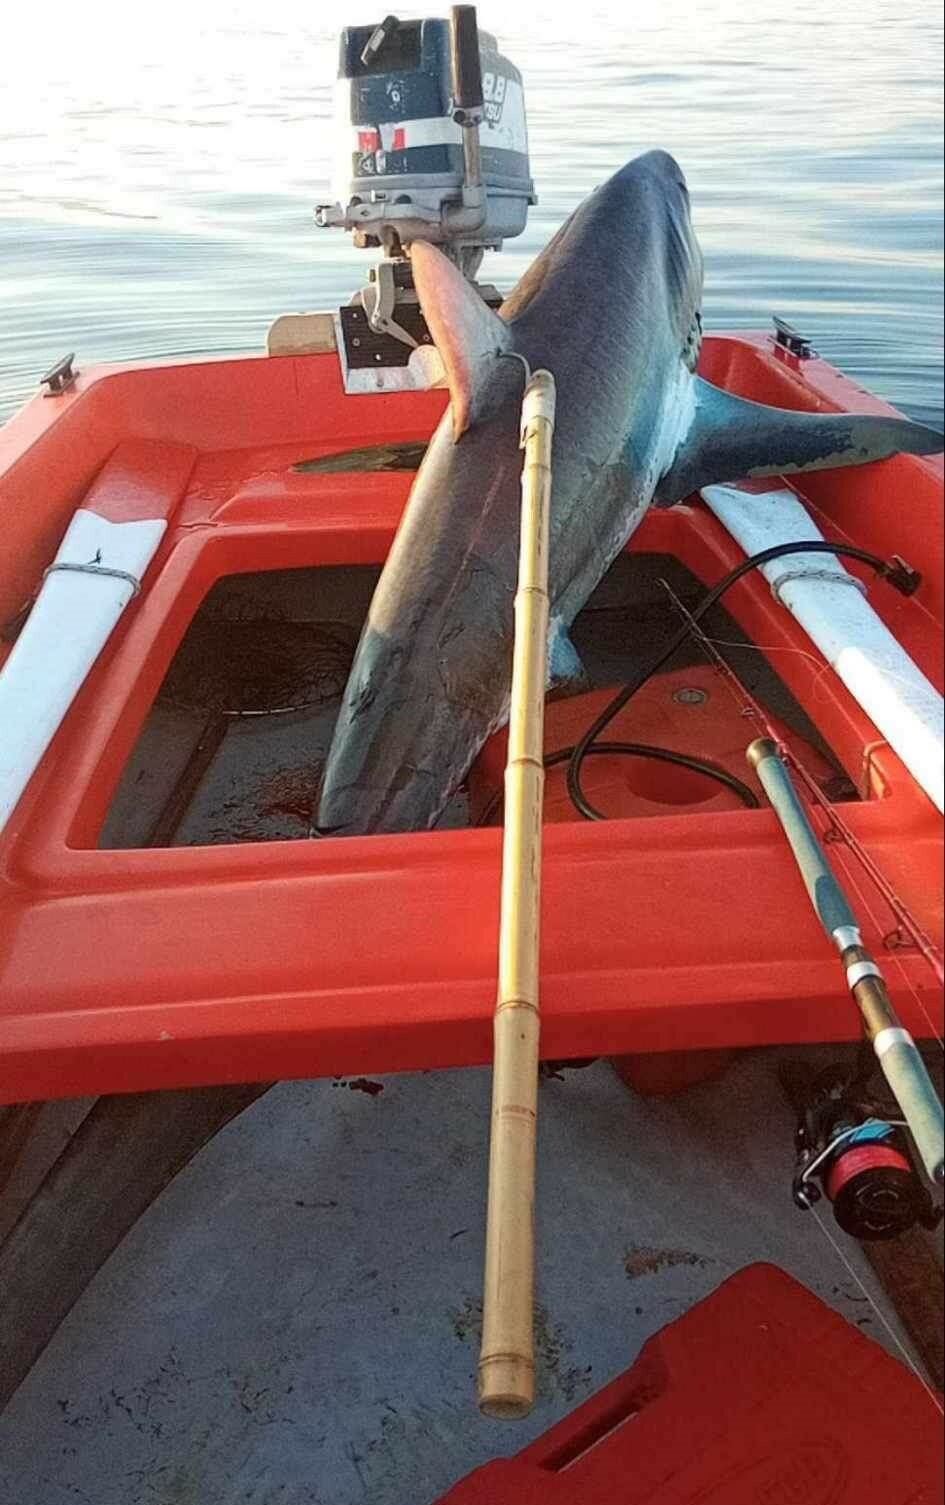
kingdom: Animalia
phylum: Chordata
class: Elasmobranchii
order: Lamniformes
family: Alopiidae
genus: Alopias
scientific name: Alopias vulpinus
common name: Thresher shark
